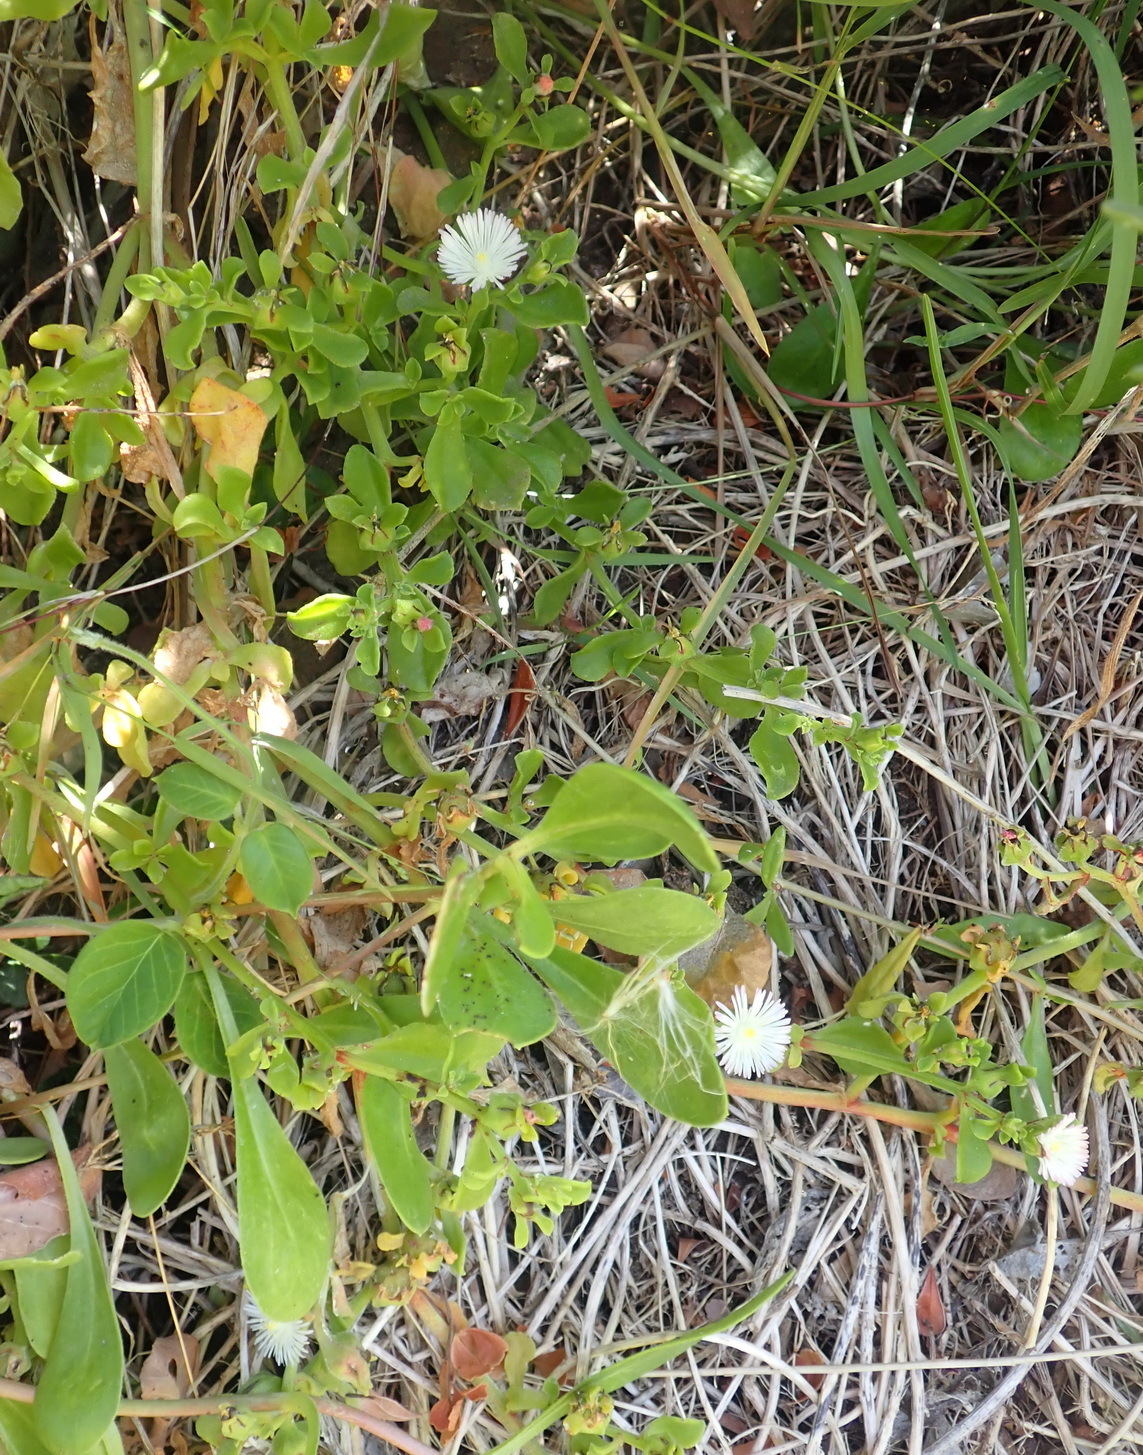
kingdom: Plantae
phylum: Tracheophyta
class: Magnoliopsida
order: Caryophyllales
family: Aizoaceae
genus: Mesembryanthemum
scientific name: Mesembryanthemum aitonis
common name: Angled iceplant
